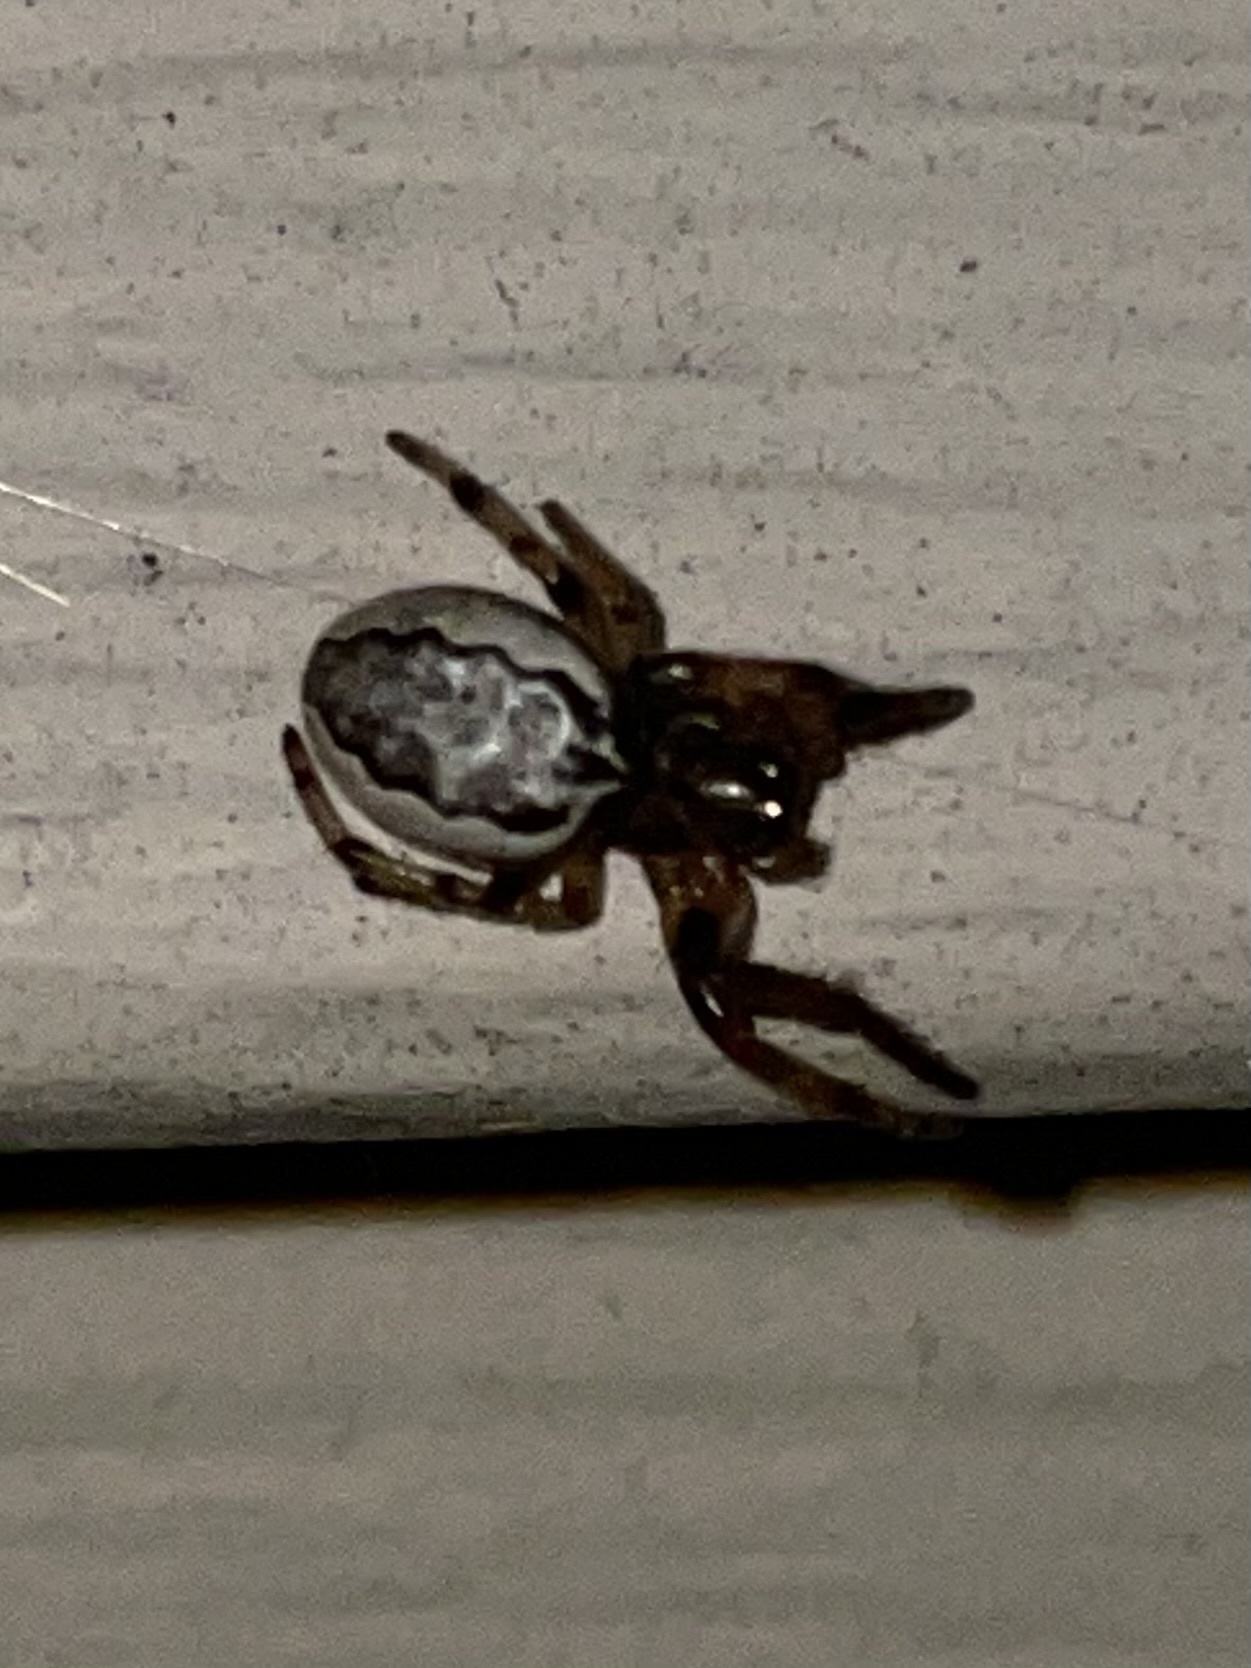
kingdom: Animalia
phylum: Arthropoda
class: Arachnida
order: Araneae
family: Araneidae
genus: Larinioides
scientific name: Larinioides cornutus
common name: Furrow orbweaver
